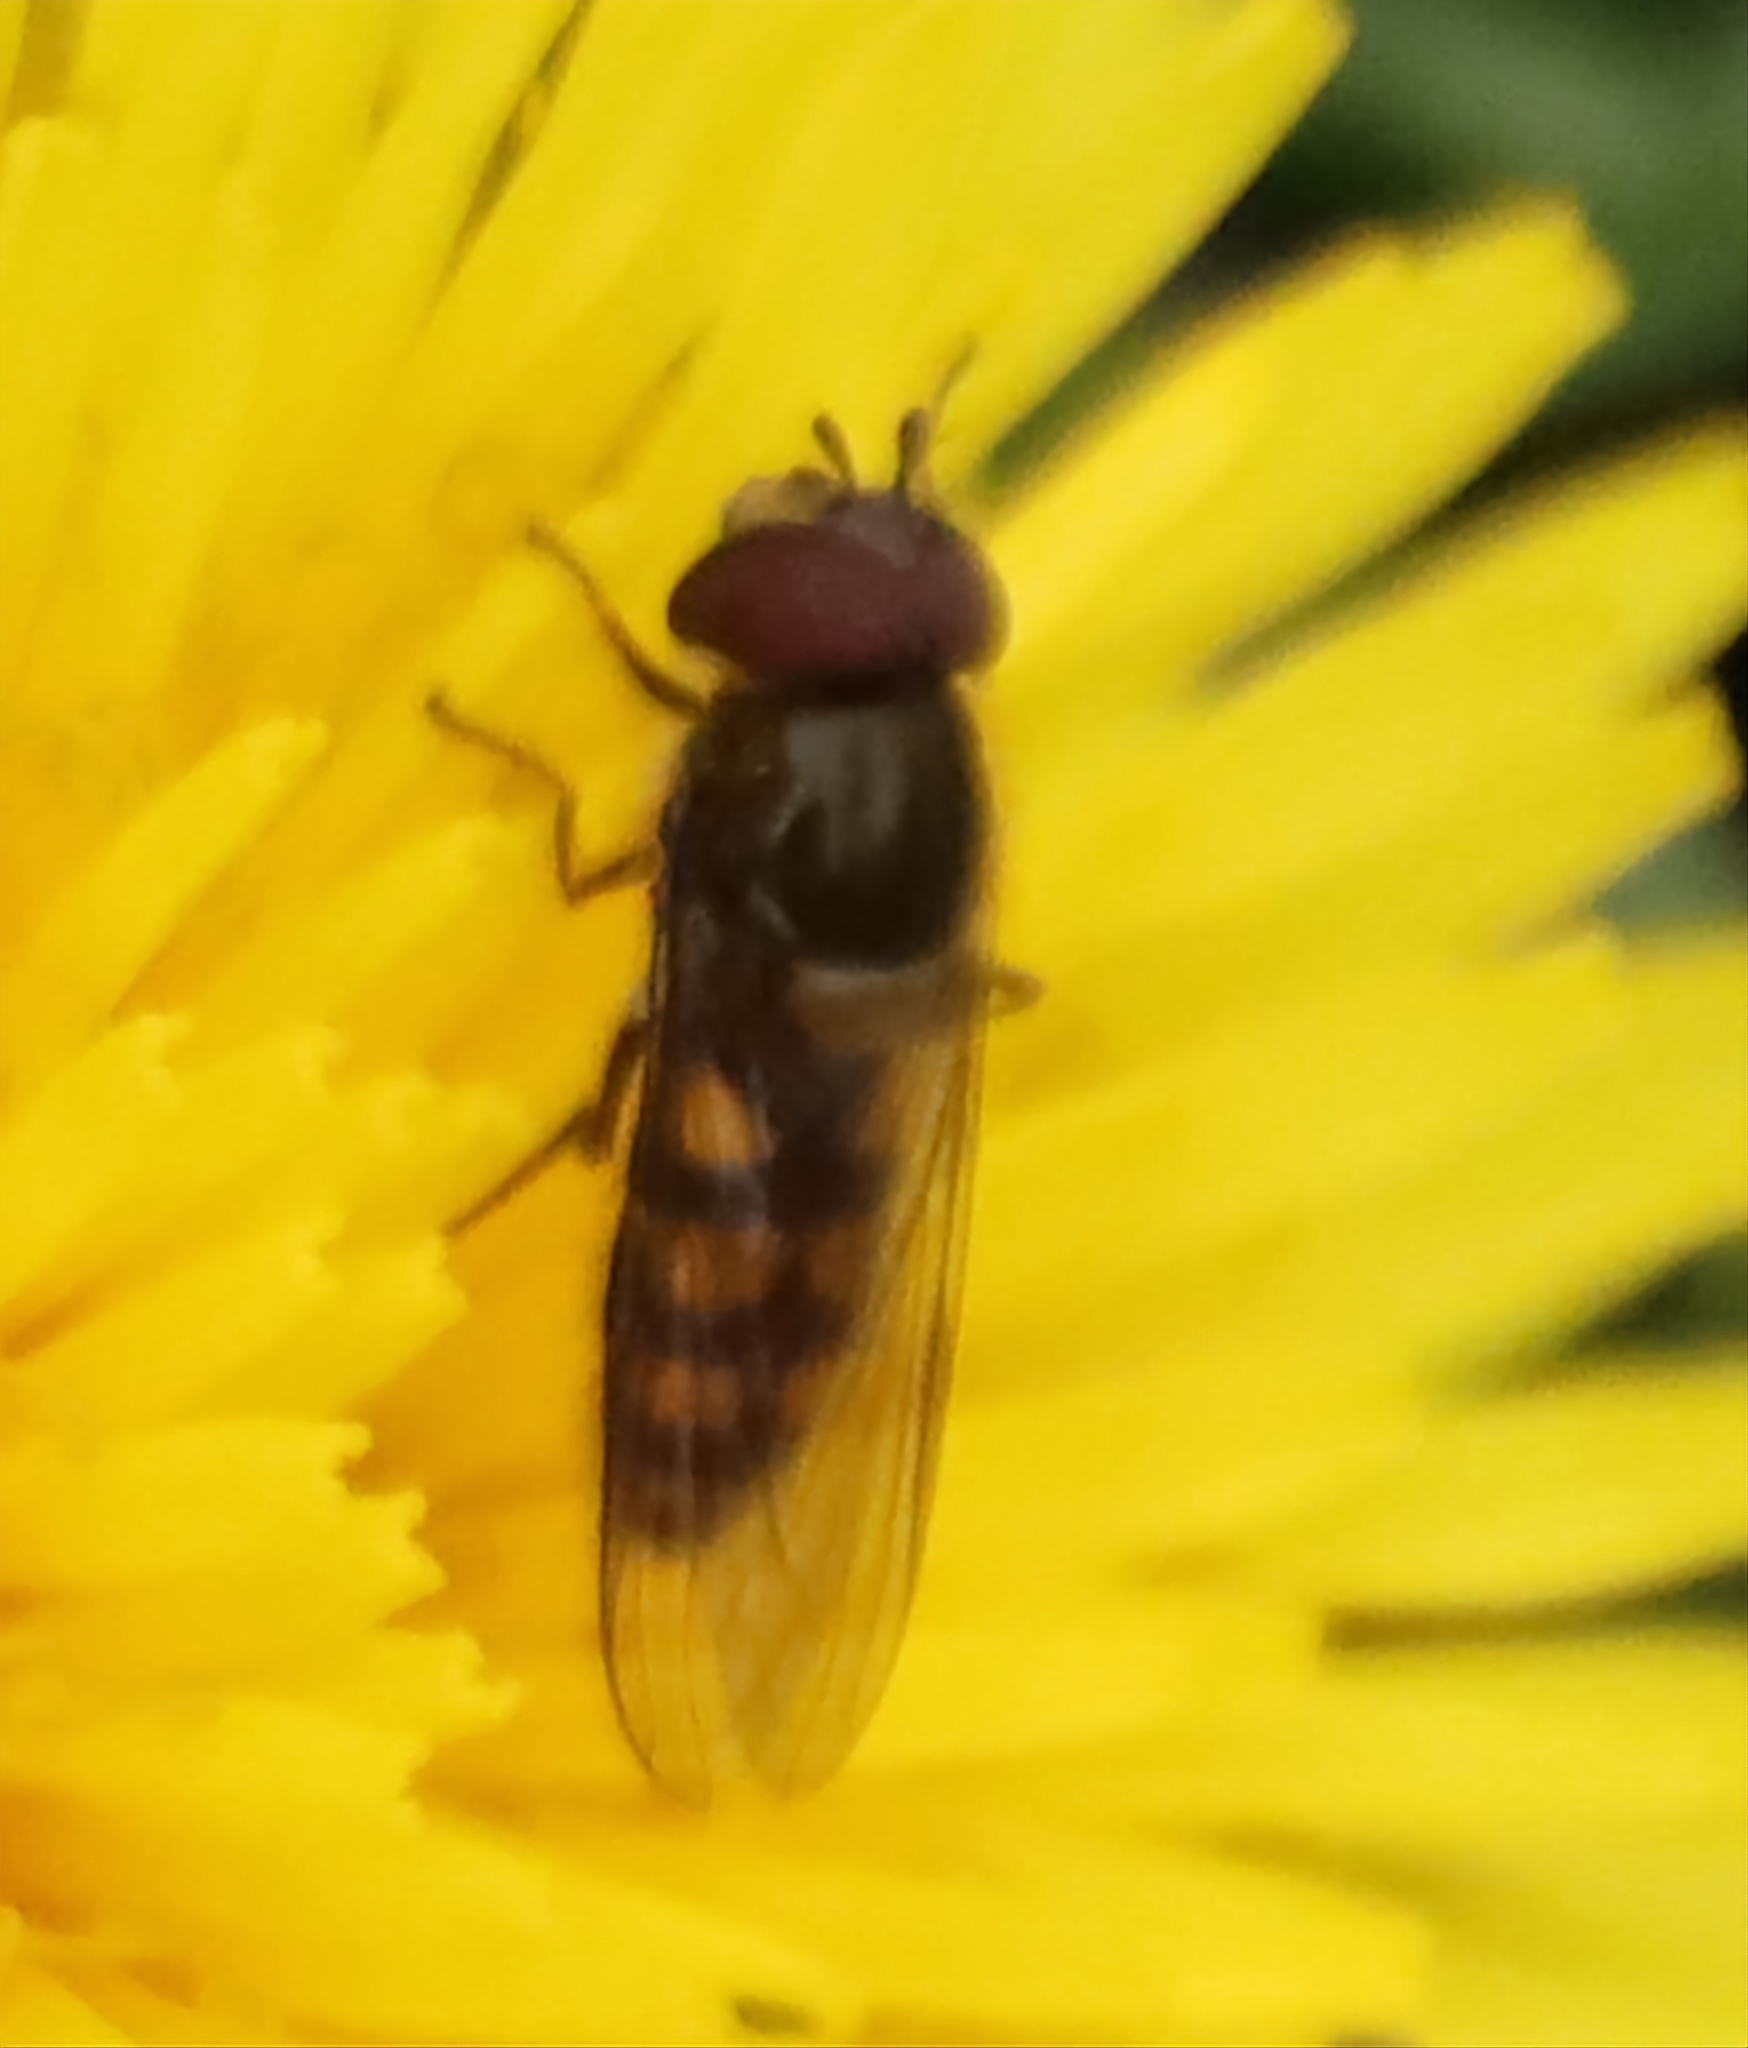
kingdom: Animalia
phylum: Arthropoda
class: Insecta
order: Diptera
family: Syrphidae
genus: Parasyrphus
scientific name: Parasyrphus punctulatus
